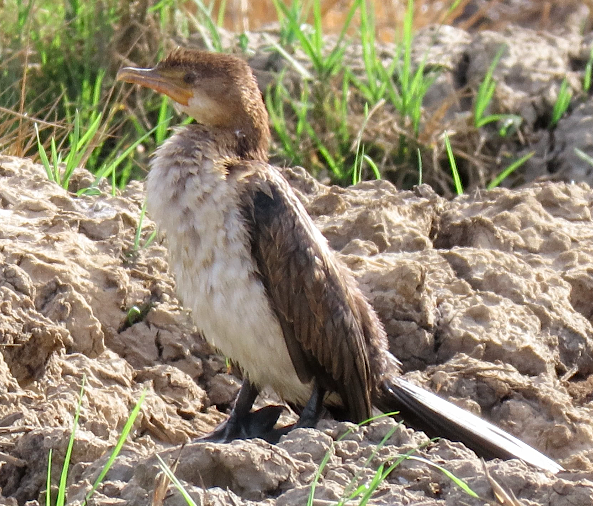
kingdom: Animalia
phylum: Chordata
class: Aves
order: Suliformes
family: Phalacrocoracidae
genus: Microcarbo
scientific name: Microcarbo africanus
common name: Long-tailed cormorant
